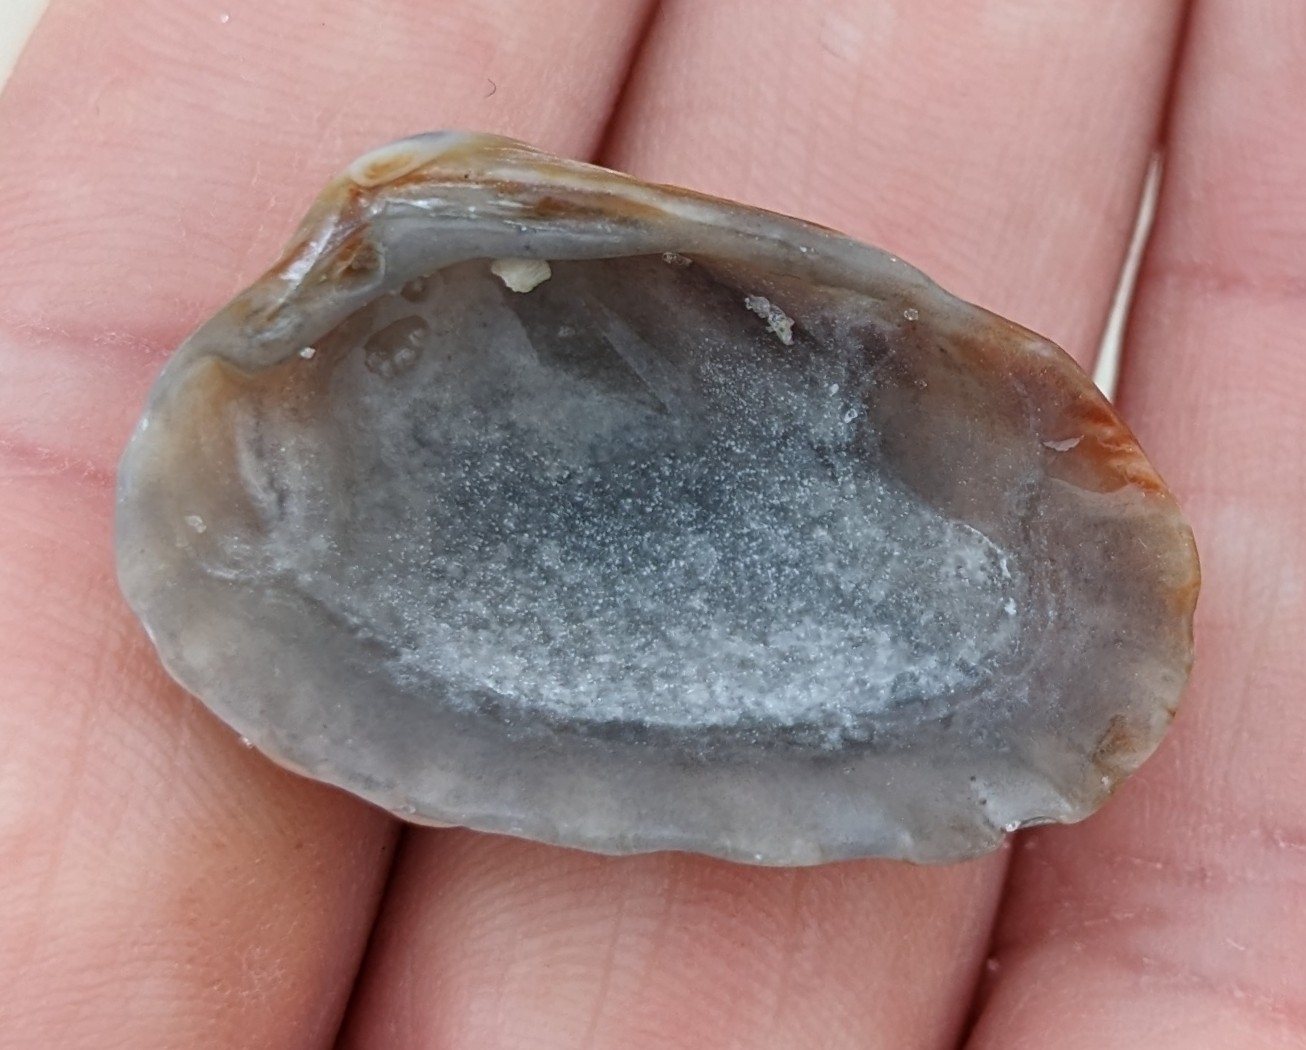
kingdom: Animalia
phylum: Mollusca
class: Bivalvia
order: Carditida
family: Carditidae
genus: Cardites
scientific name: Cardites floridanus
